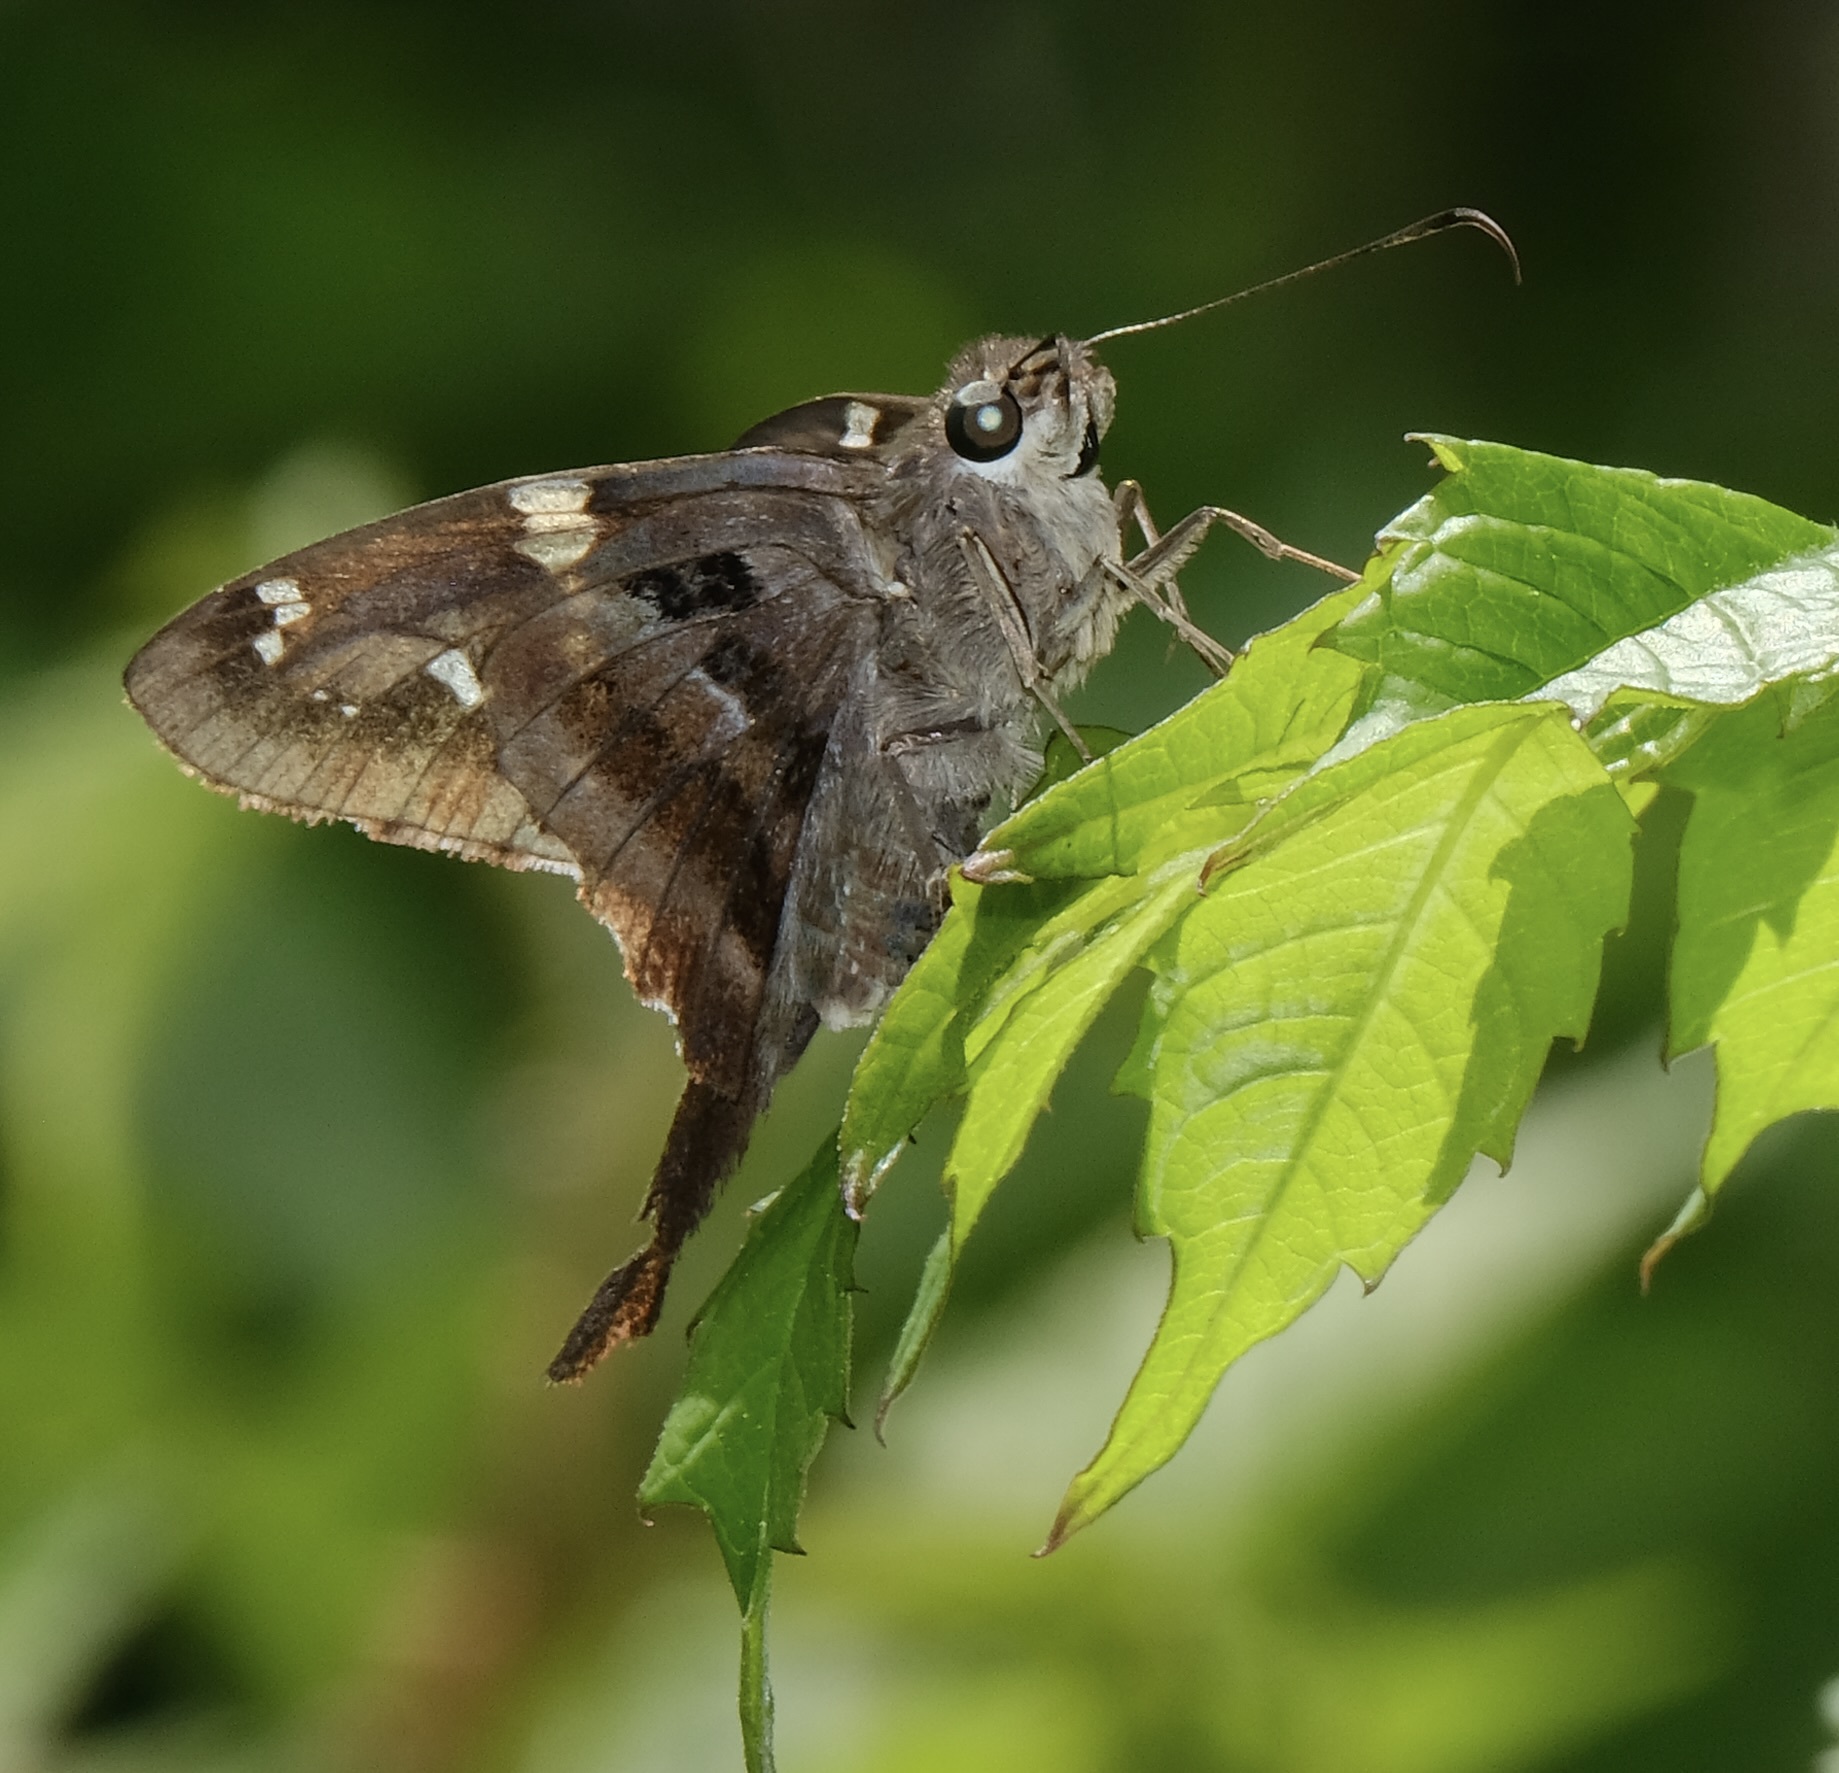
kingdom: Animalia
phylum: Arthropoda
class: Insecta
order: Lepidoptera
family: Hesperiidae
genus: Urbanus
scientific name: Urbanus proteus
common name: Long-tailed skipper
